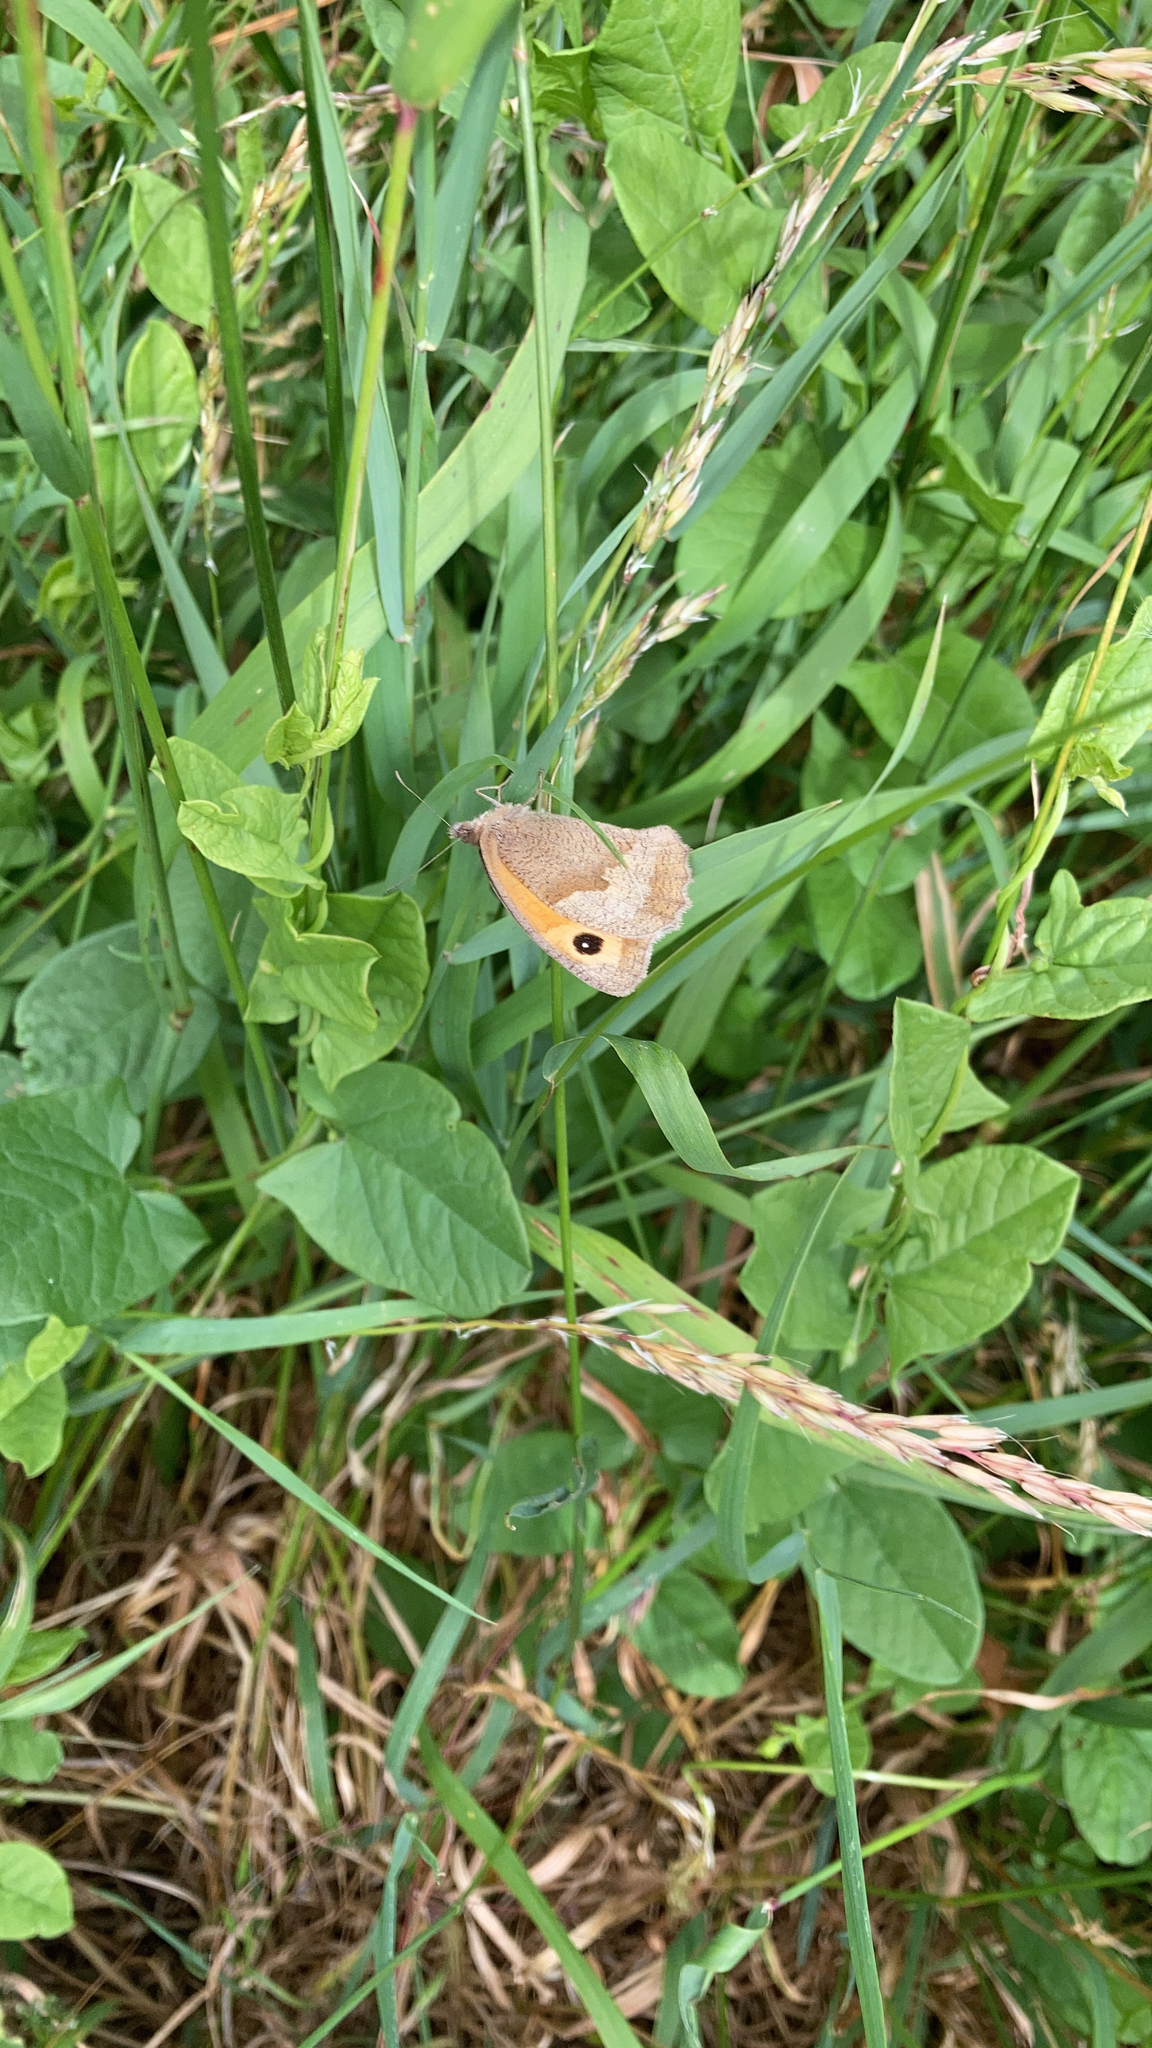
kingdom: Animalia
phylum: Arthropoda
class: Insecta
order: Lepidoptera
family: Nymphalidae
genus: Maniola
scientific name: Maniola jurtina
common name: Meadow brown
